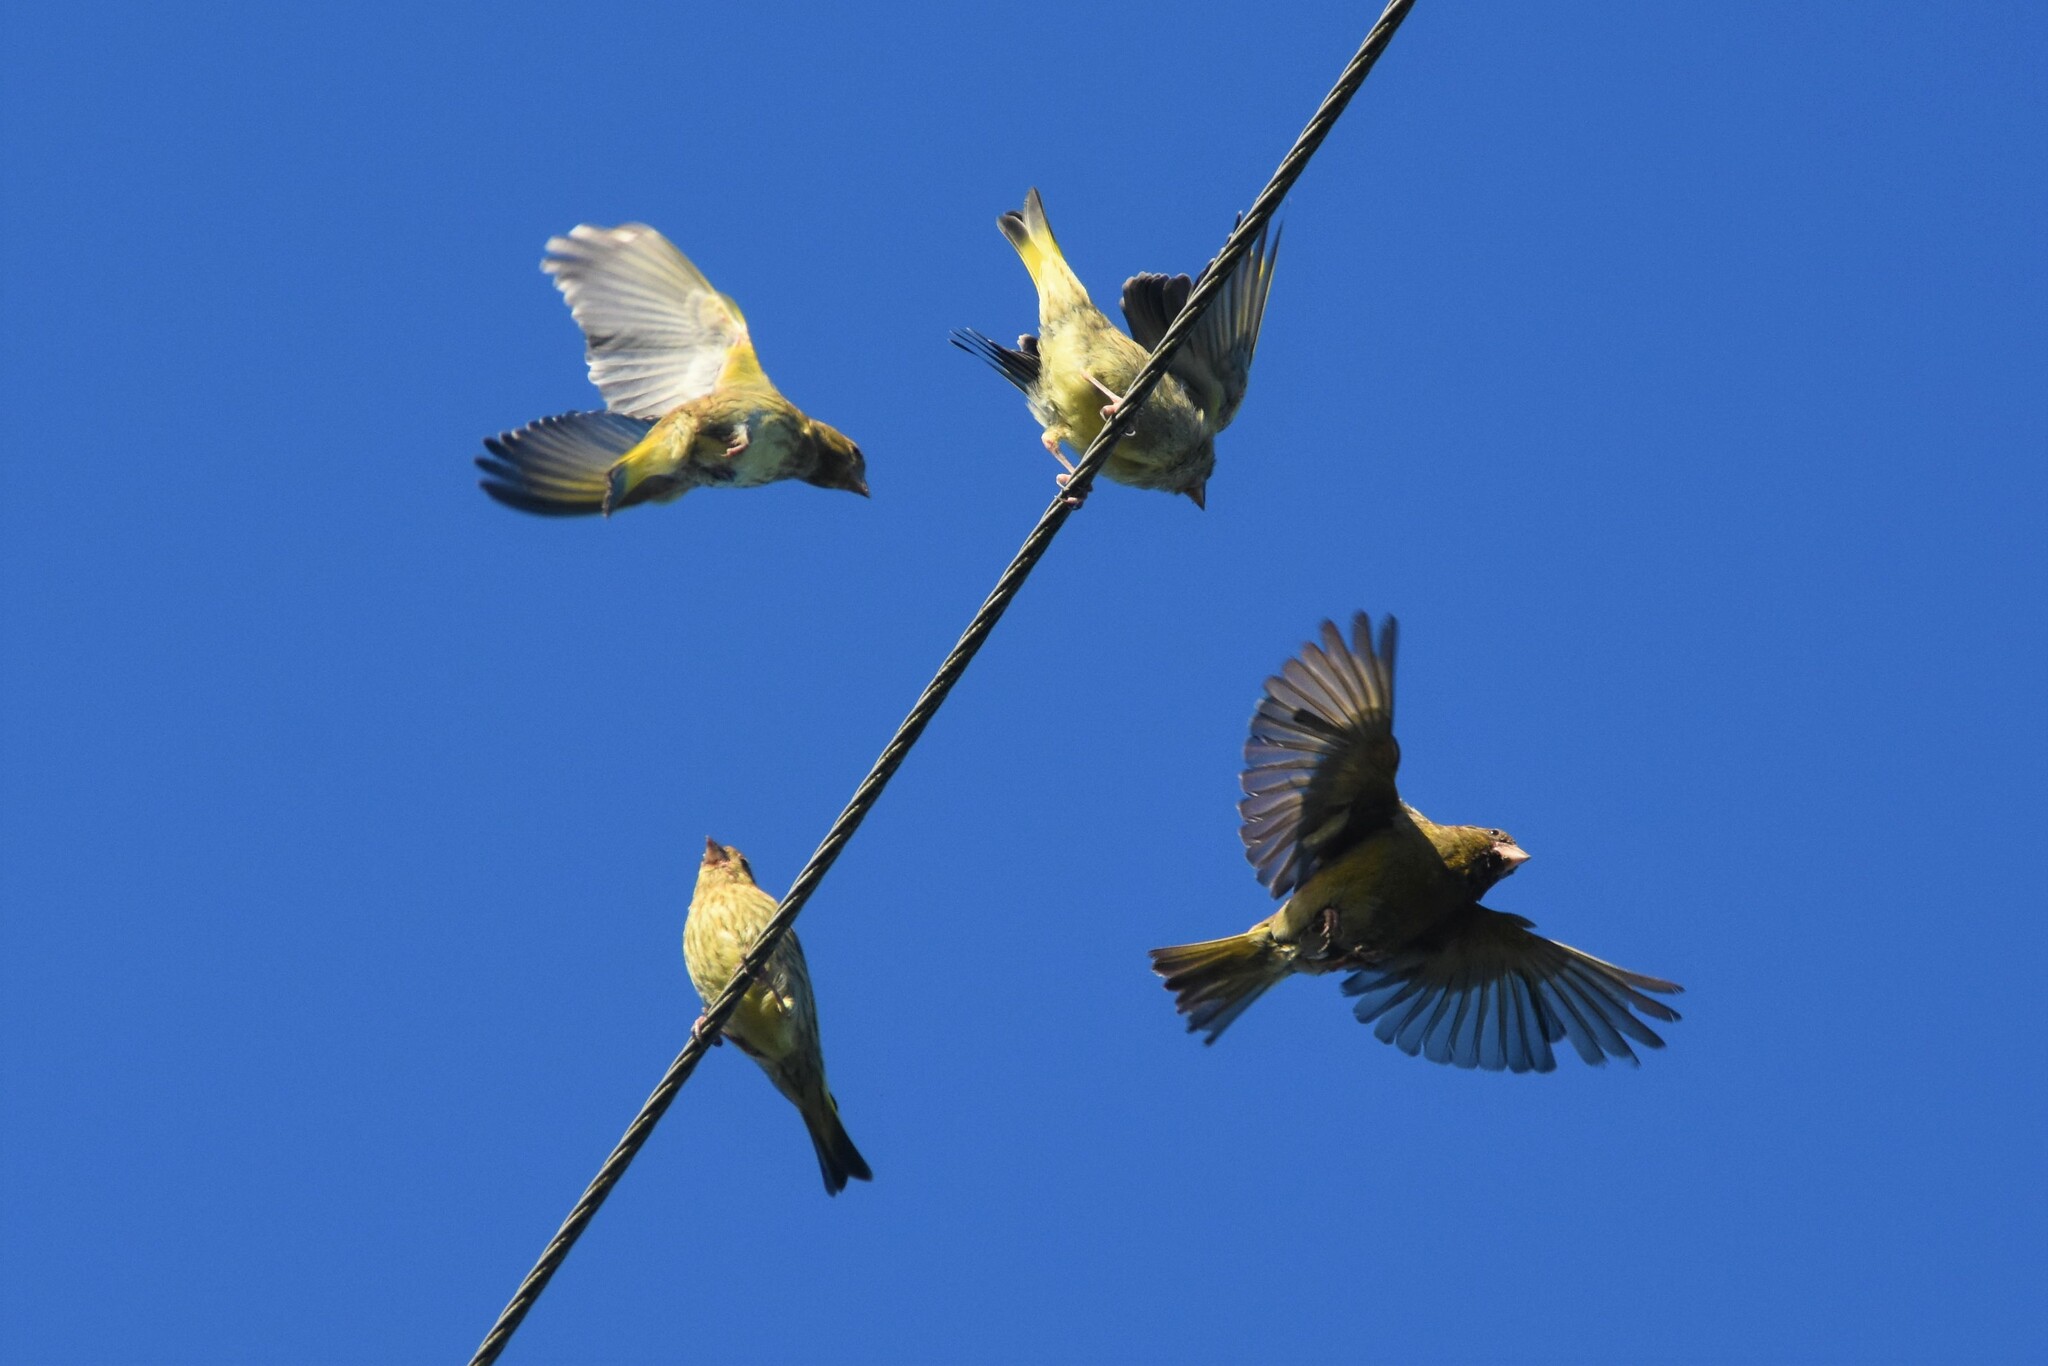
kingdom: Plantae
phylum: Tracheophyta
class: Liliopsida
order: Poales
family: Poaceae
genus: Chloris
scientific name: Chloris chloris
